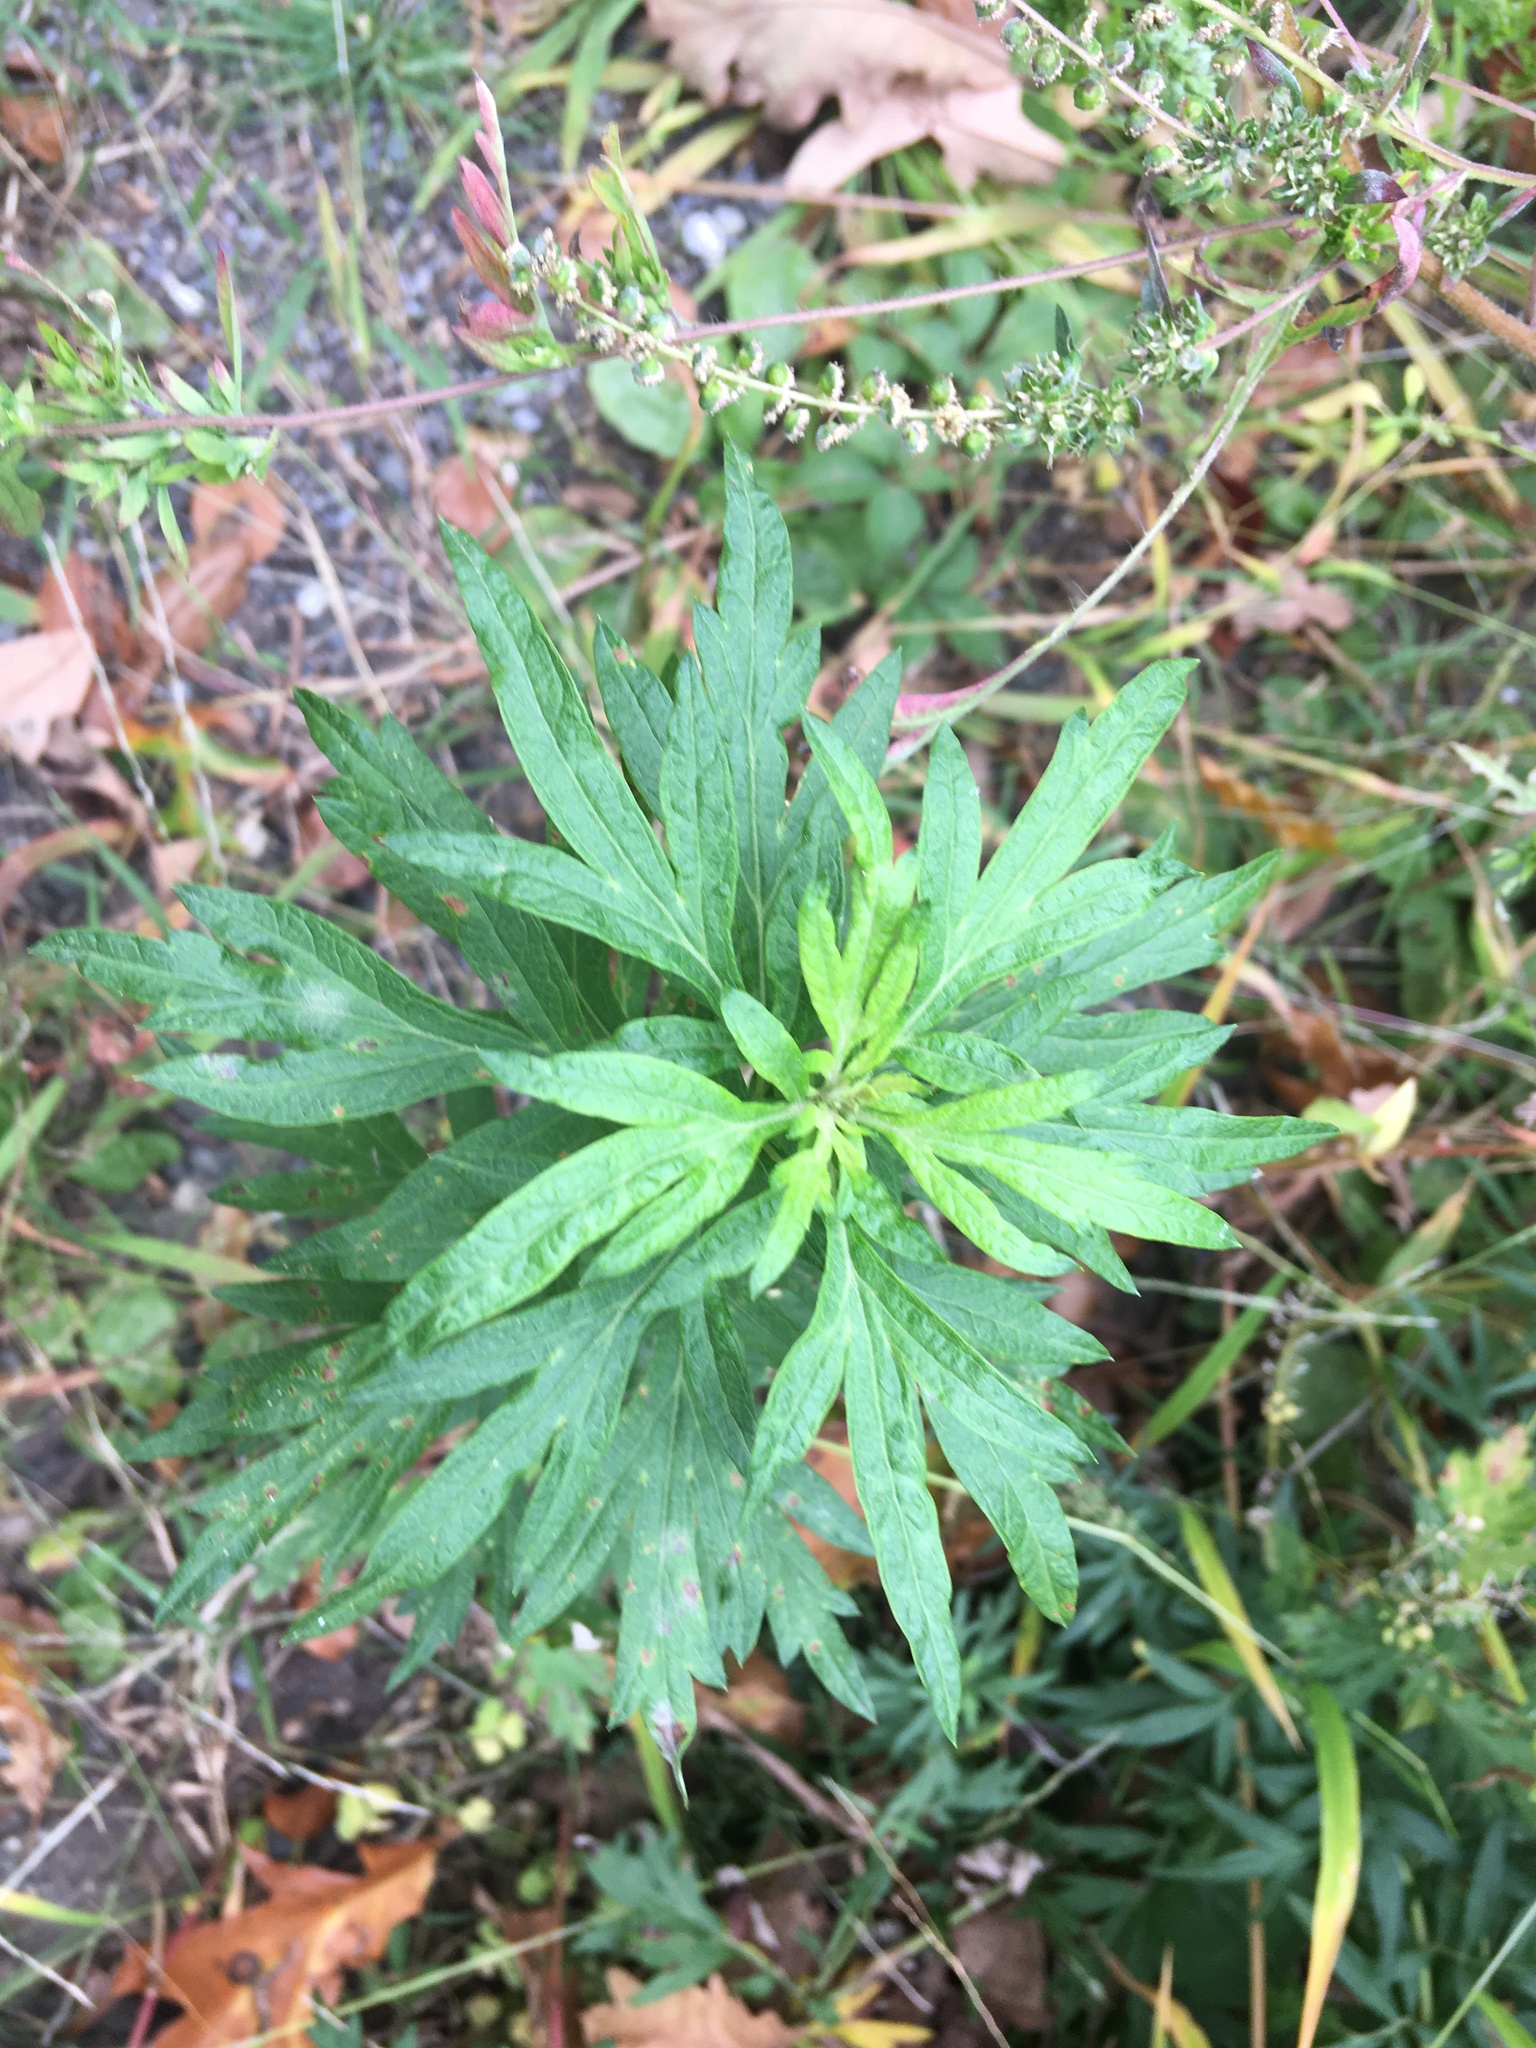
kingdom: Plantae
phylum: Tracheophyta
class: Magnoliopsida
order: Asterales
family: Asteraceae
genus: Artemisia
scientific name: Artemisia vulgaris
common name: Mugwort
